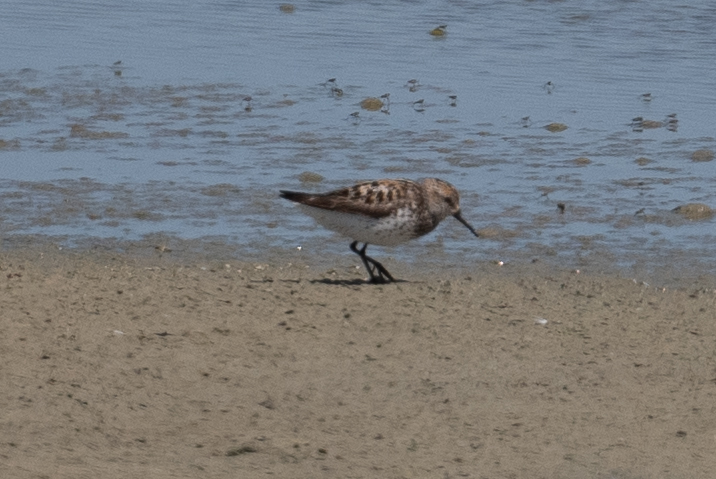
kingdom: Animalia
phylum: Chordata
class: Aves
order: Charadriiformes
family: Scolopacidae
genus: Calidris
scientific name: Calidris mauri
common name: Western sandpiper
